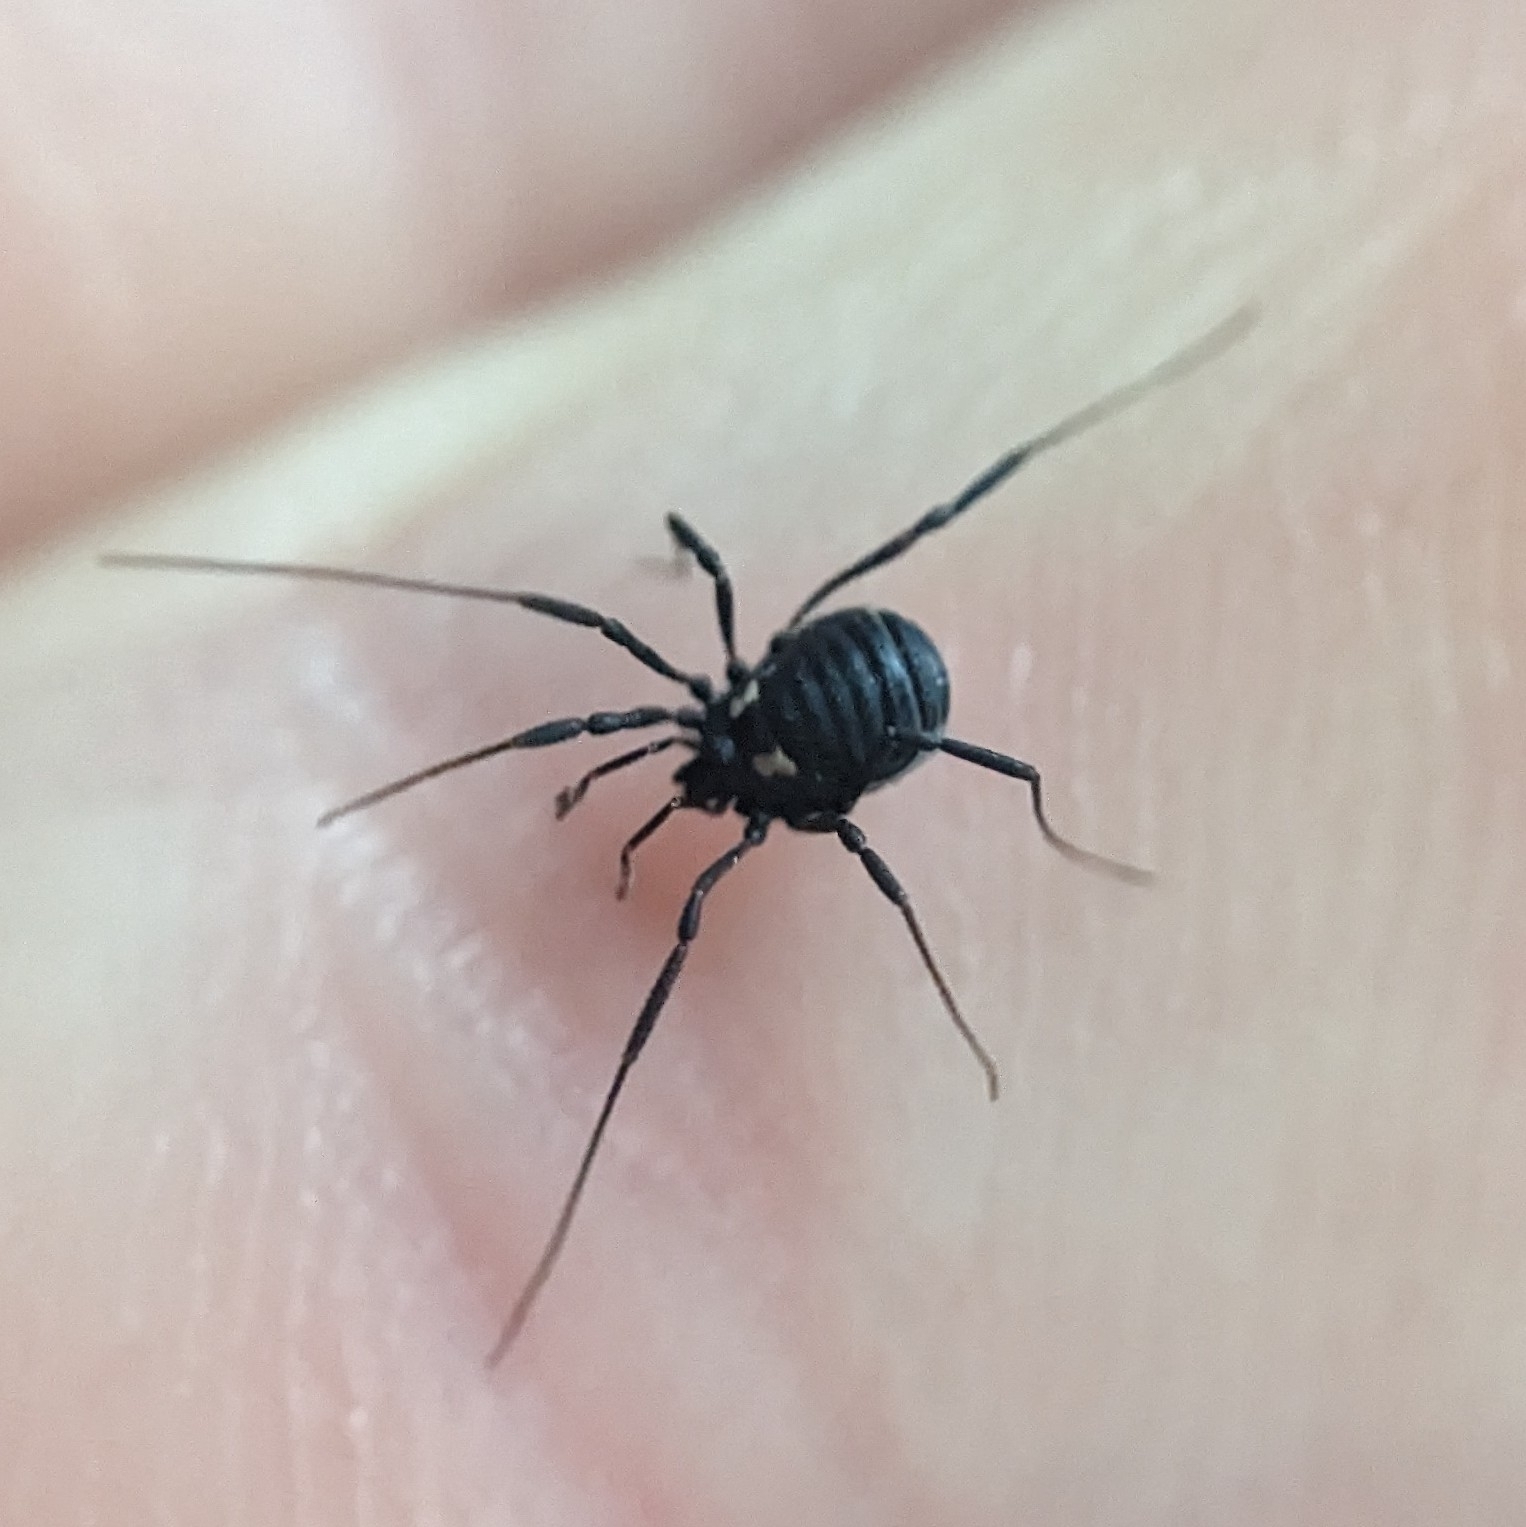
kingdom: Animalia
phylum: Arthropoda
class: Arachnida
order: Opiliones
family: Nemastomatidae
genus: Nemastoma
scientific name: Nemastoma bimaculatum
